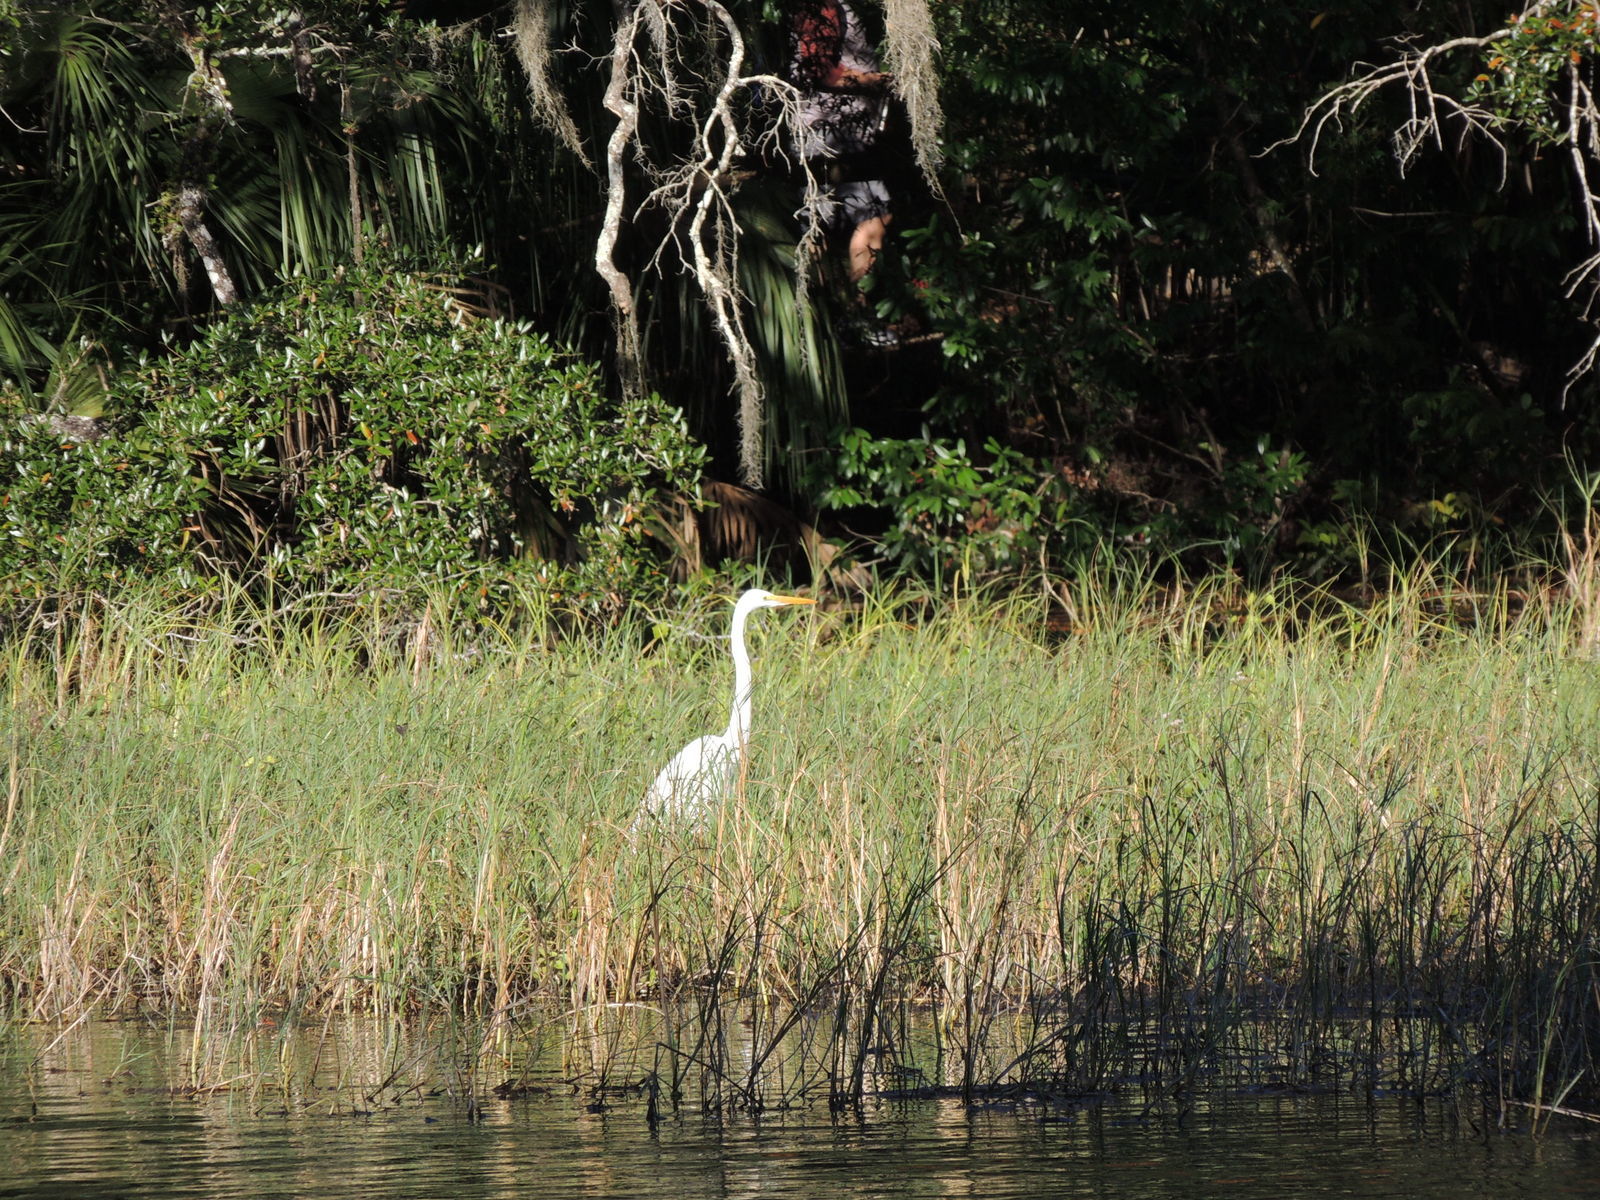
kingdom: Animalia
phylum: Chordata
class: Aves
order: Pelecaniformes
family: Ardeidae
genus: Ardea
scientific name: Ardea alba
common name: Great egret
